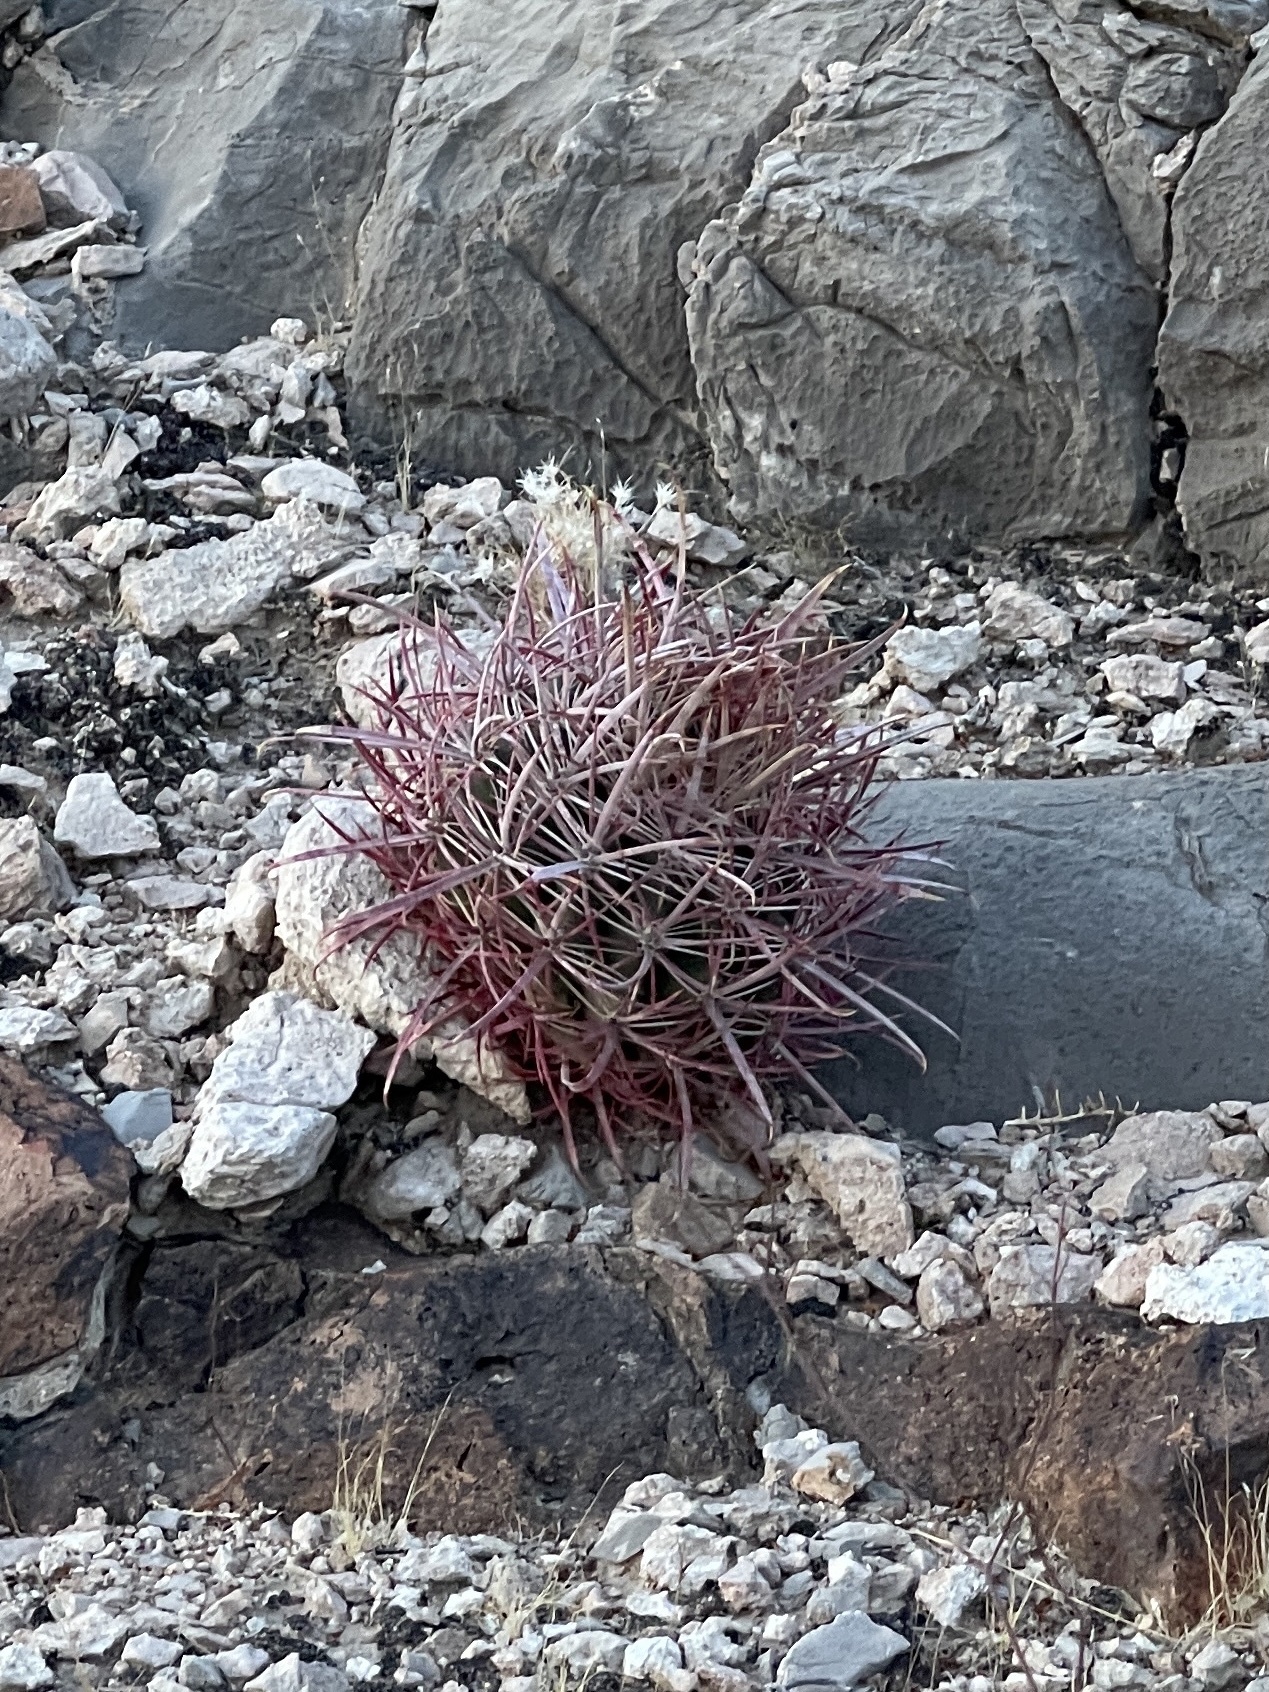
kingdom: Plantae
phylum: Tracheophyta
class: Magnoliopsida
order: Caryophyllales
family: Cactaceae
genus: Ferocactus
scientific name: Ferocactus cylindraceus
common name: California barrel cactus
